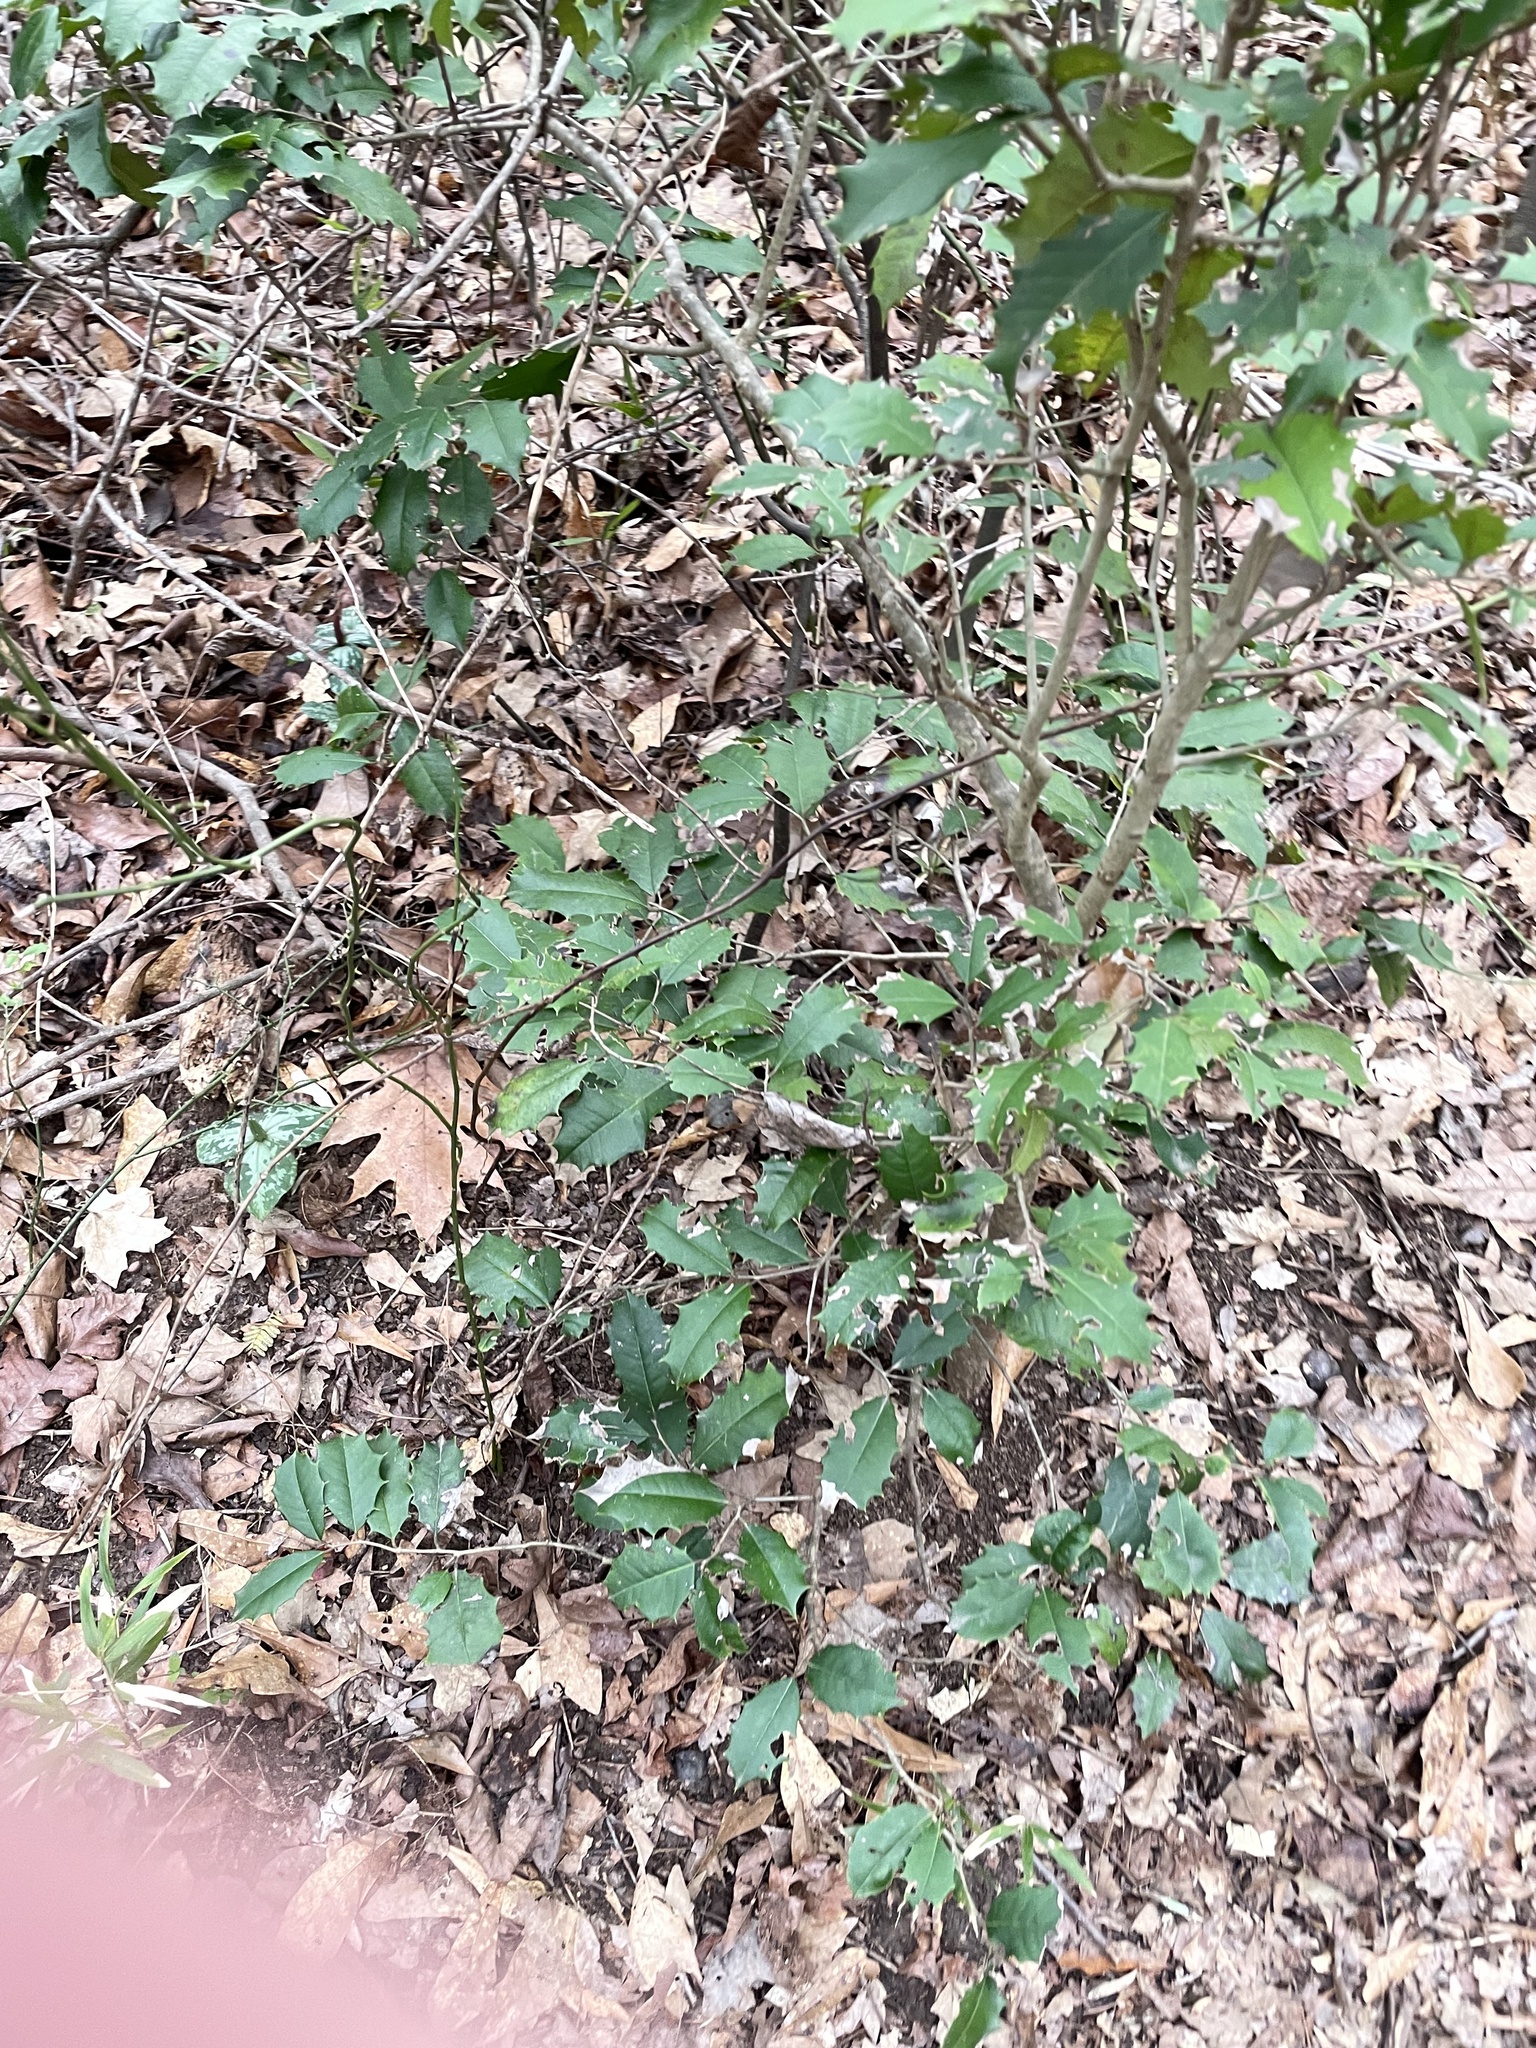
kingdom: Plantae
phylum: Tracheophyta
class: Magnoliopsida
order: Aquifoliales
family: Aquifoliaceae
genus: Ilex
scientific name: Ilex opaca
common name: American holly
